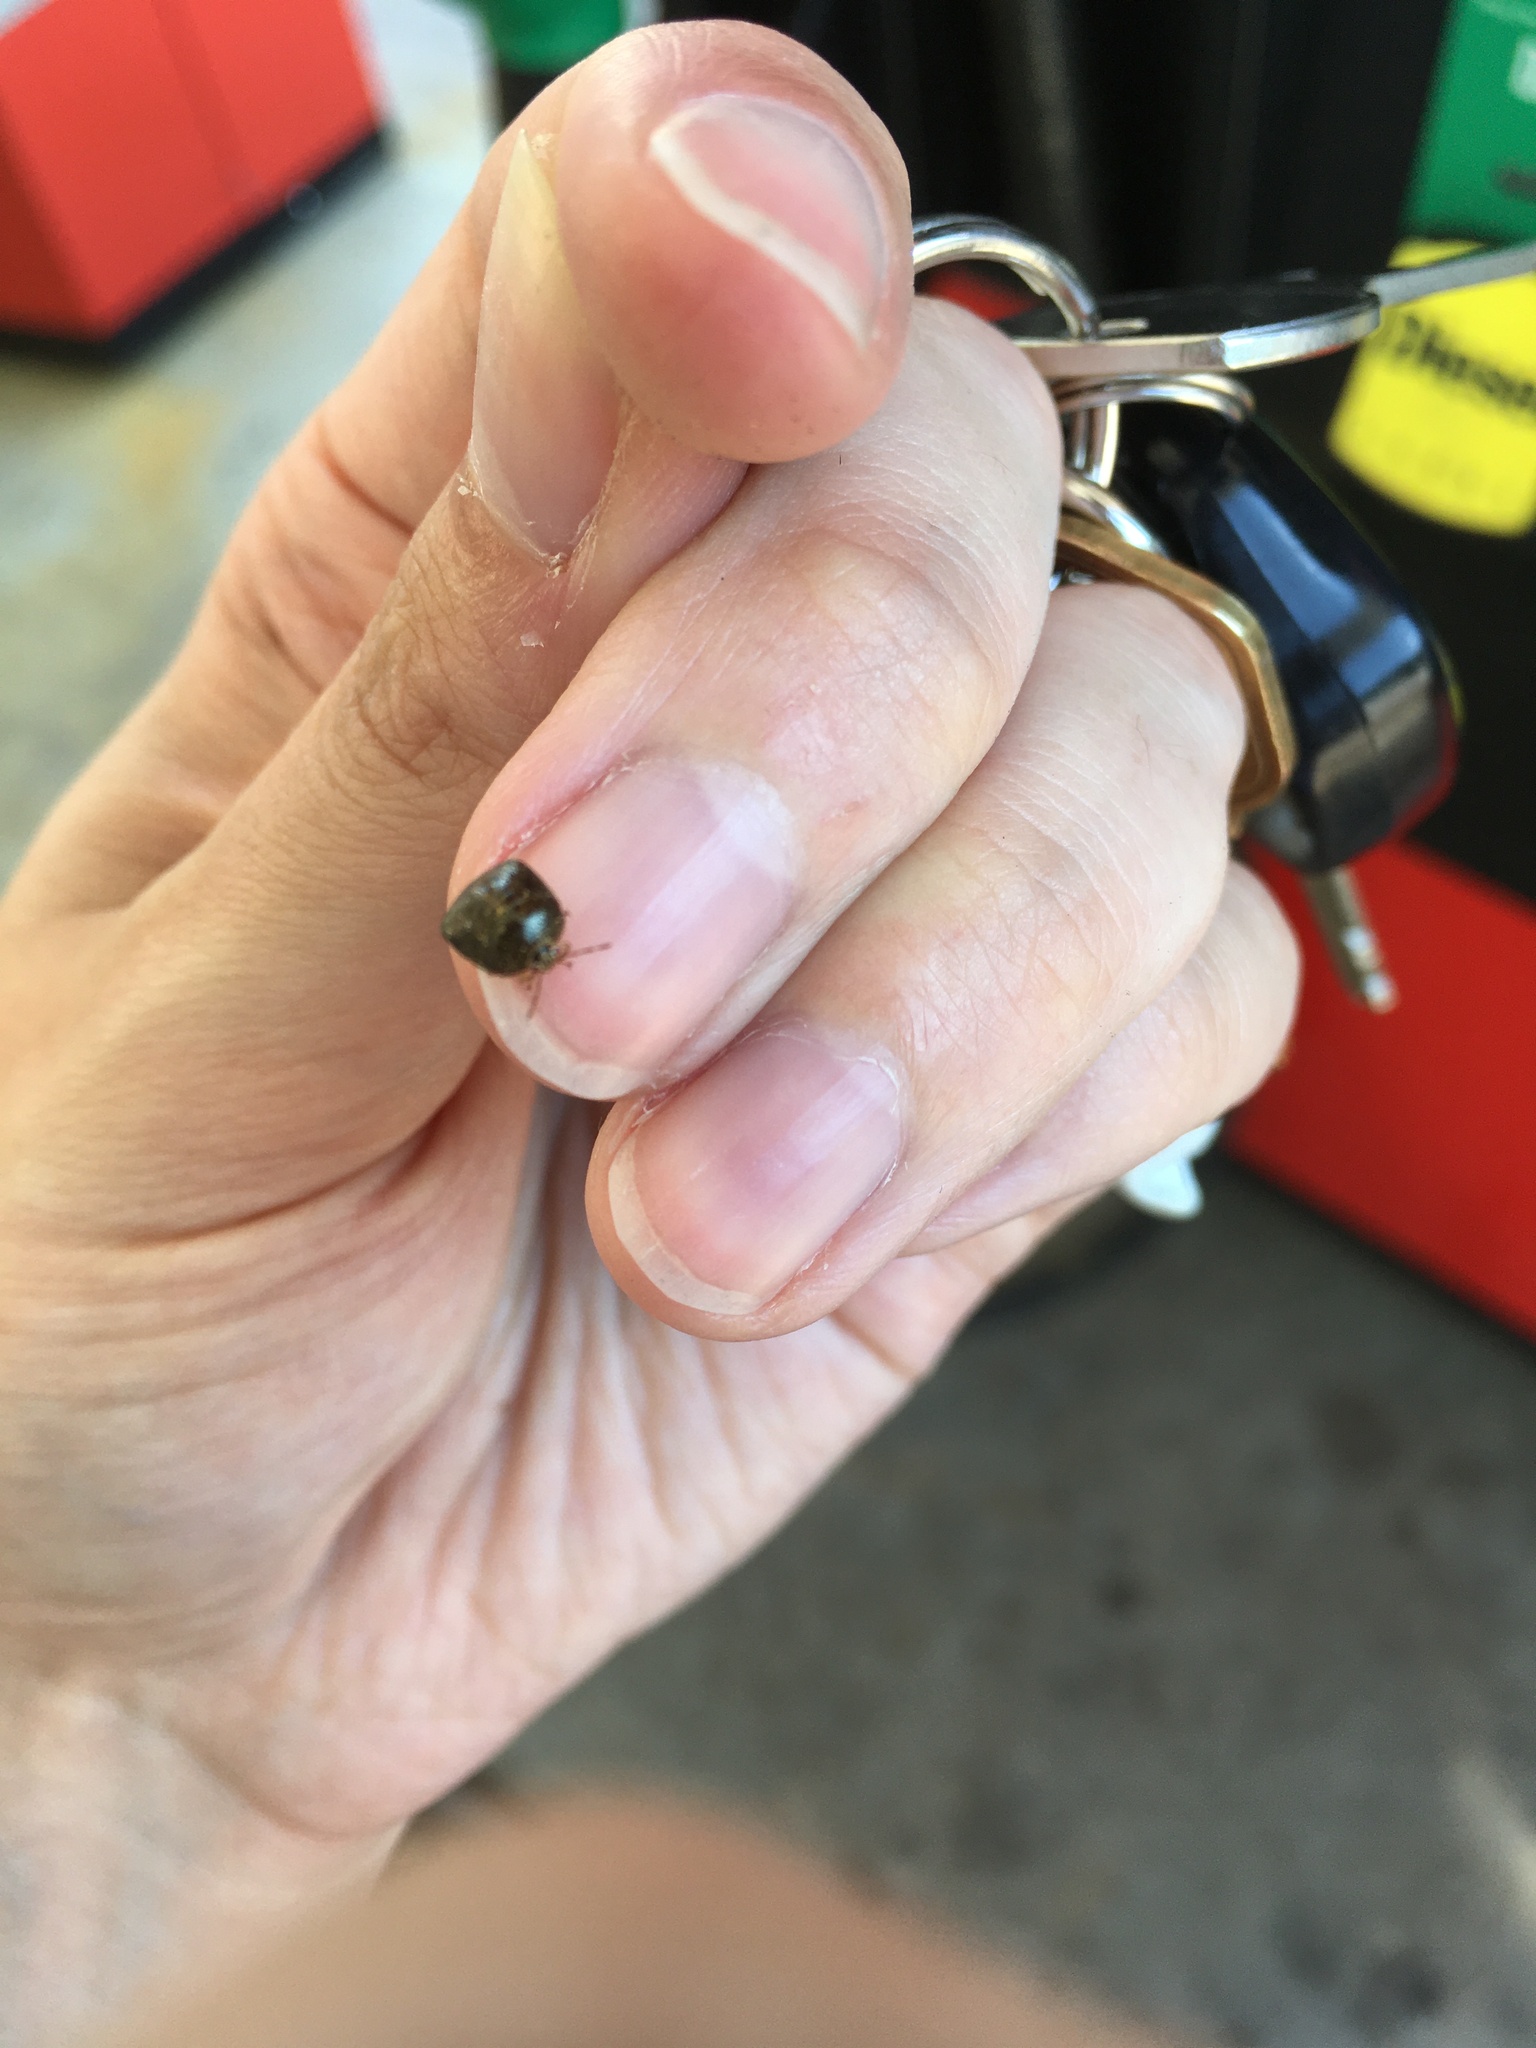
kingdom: Animalia
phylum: Arthropoda
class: Insecta
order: Hemiptera
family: Plataspidae
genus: Megacopta
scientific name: Megacopta cribraria
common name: Bean plataspid
